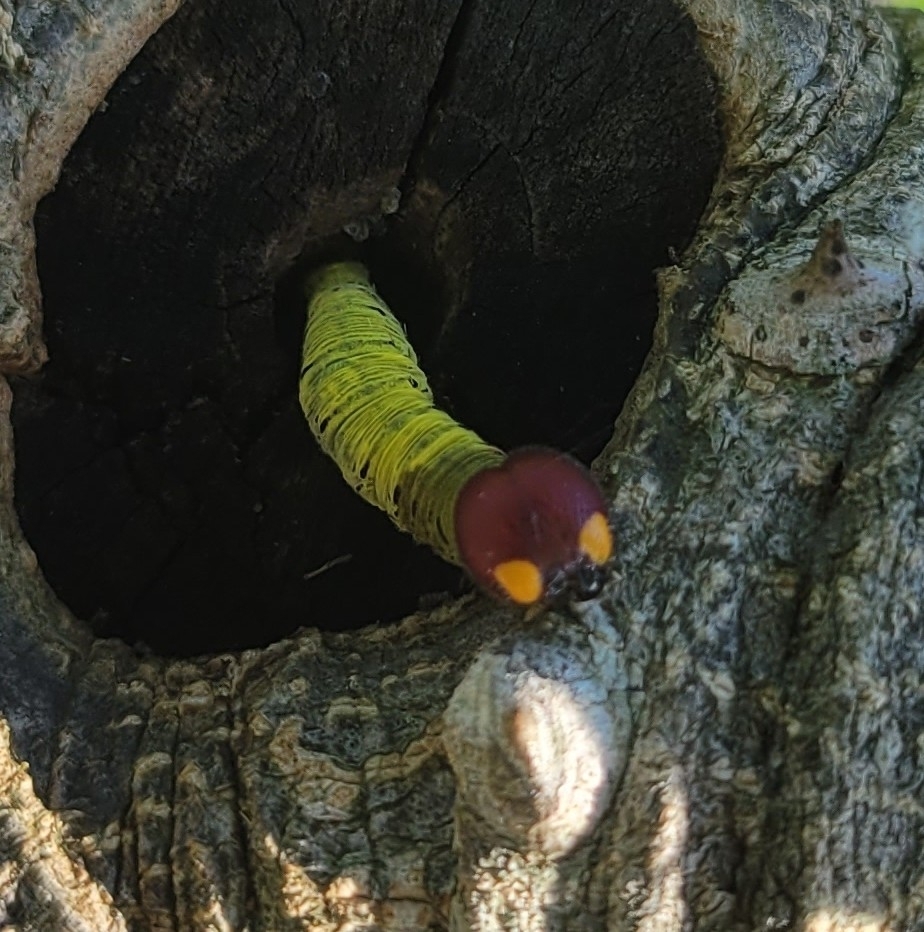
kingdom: Animalia
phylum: Arthropoda
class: Insecta
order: Lepidoptera
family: Hesperiidae
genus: Epargyreus
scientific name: Epargyreus clarus
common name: Silver-spotted skipper
